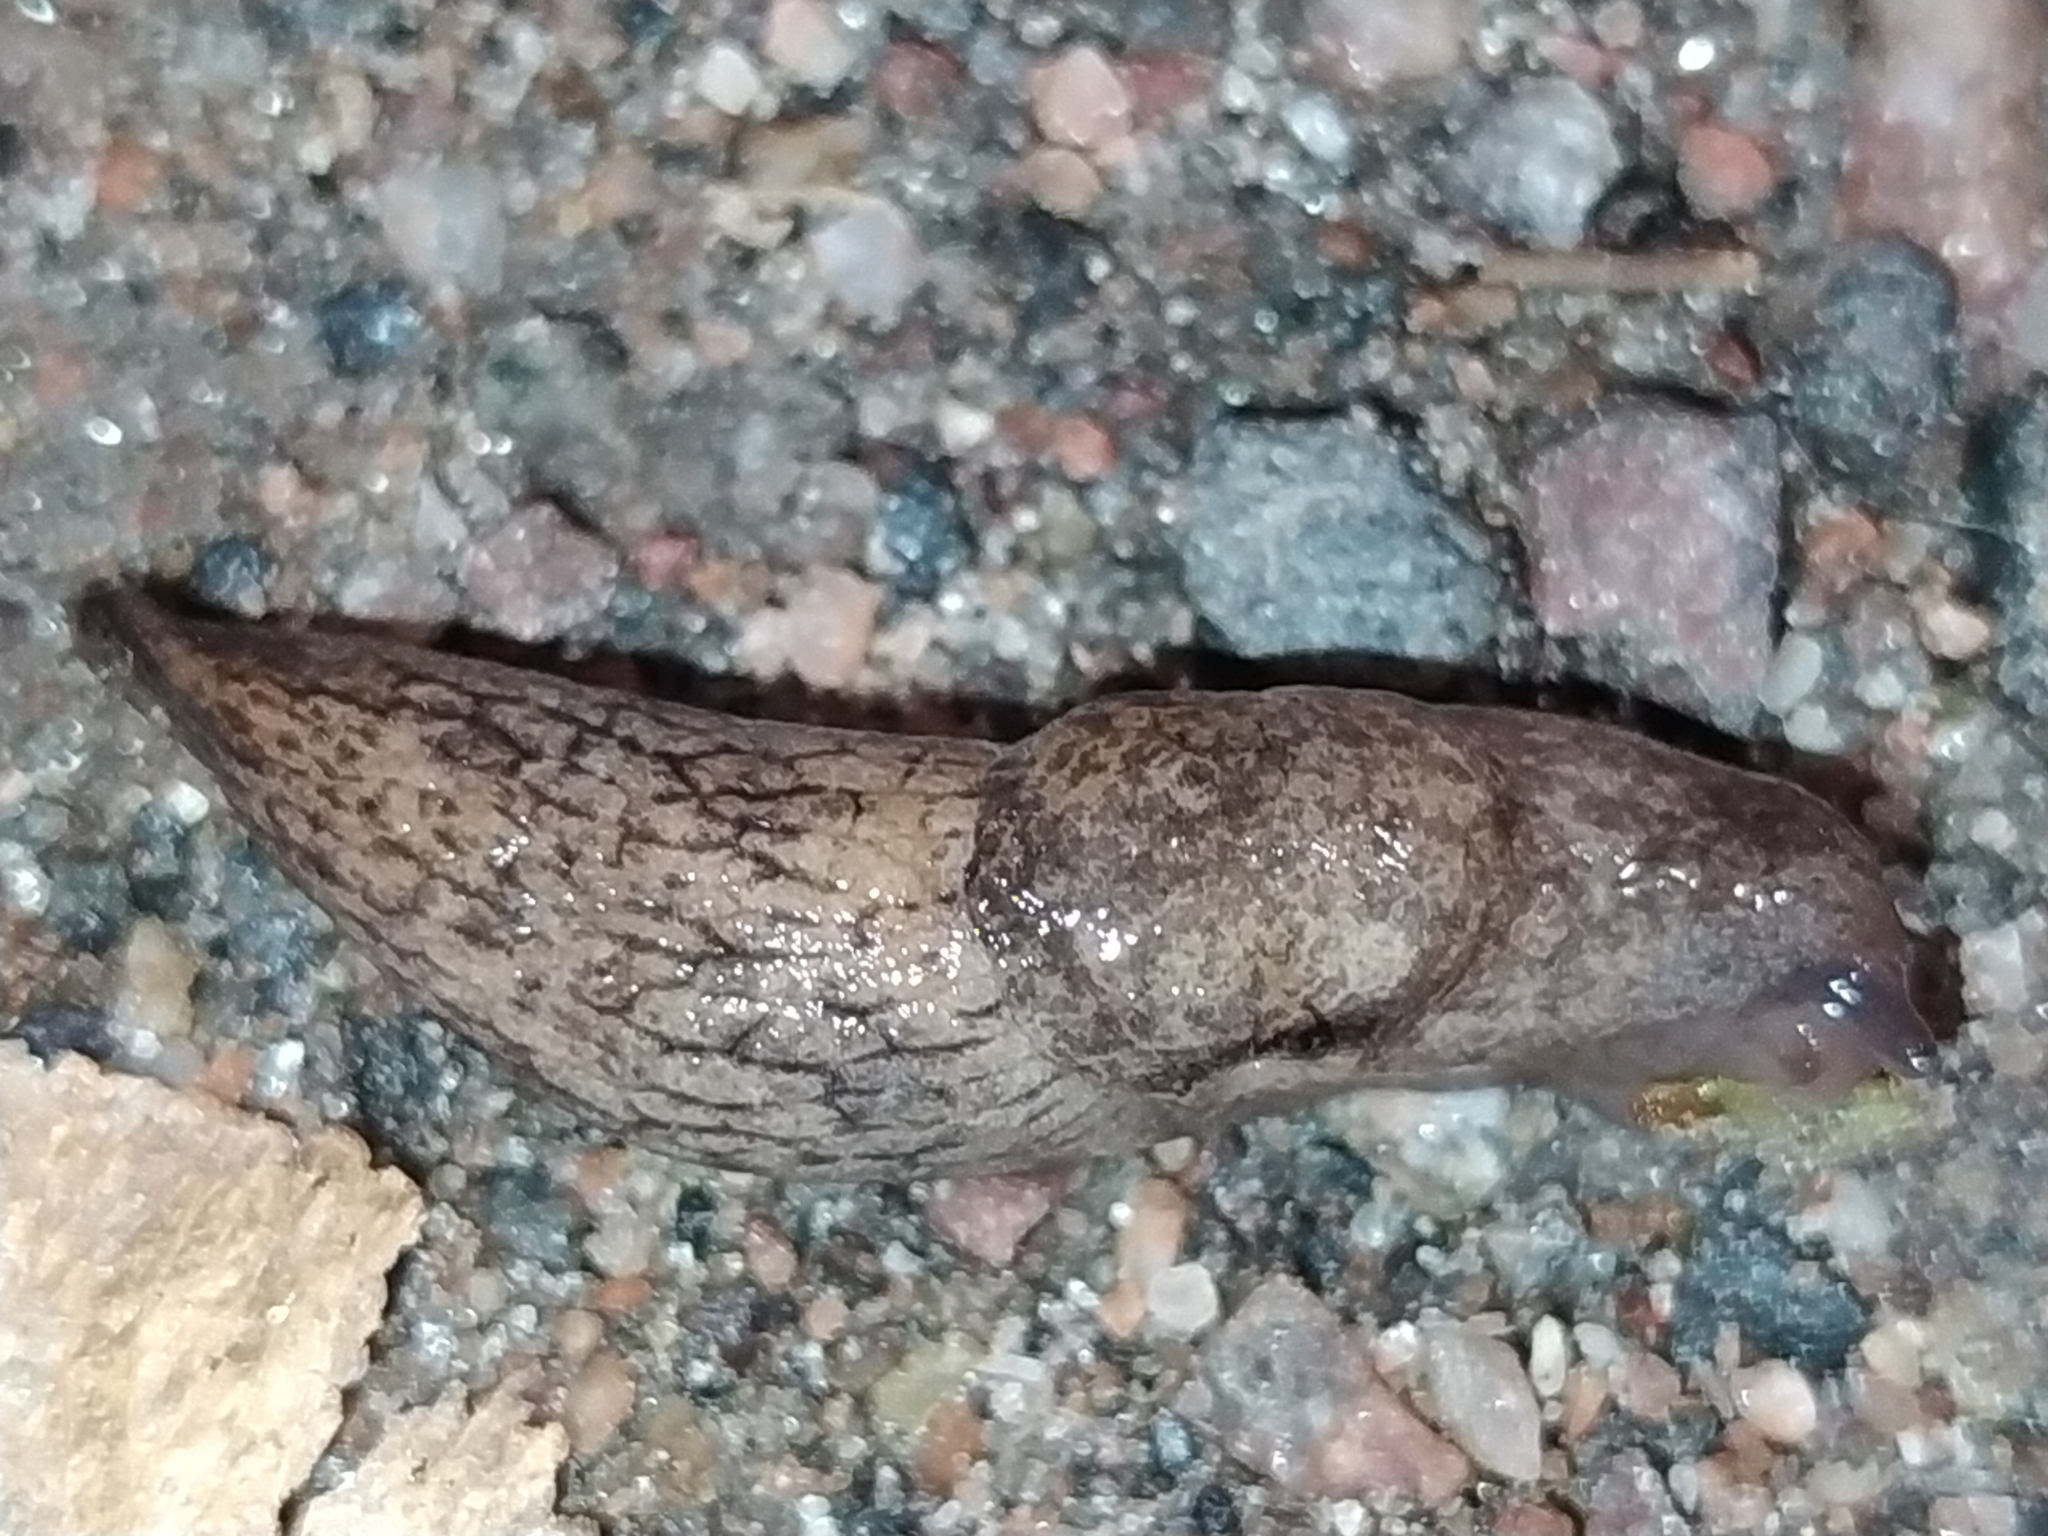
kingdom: Animalia
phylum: Mollusca
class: Gastropoda
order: Stylommatophora
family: Agriolimacidae
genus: Deroceras
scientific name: Deroceras reticulatum
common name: Gray field slug
